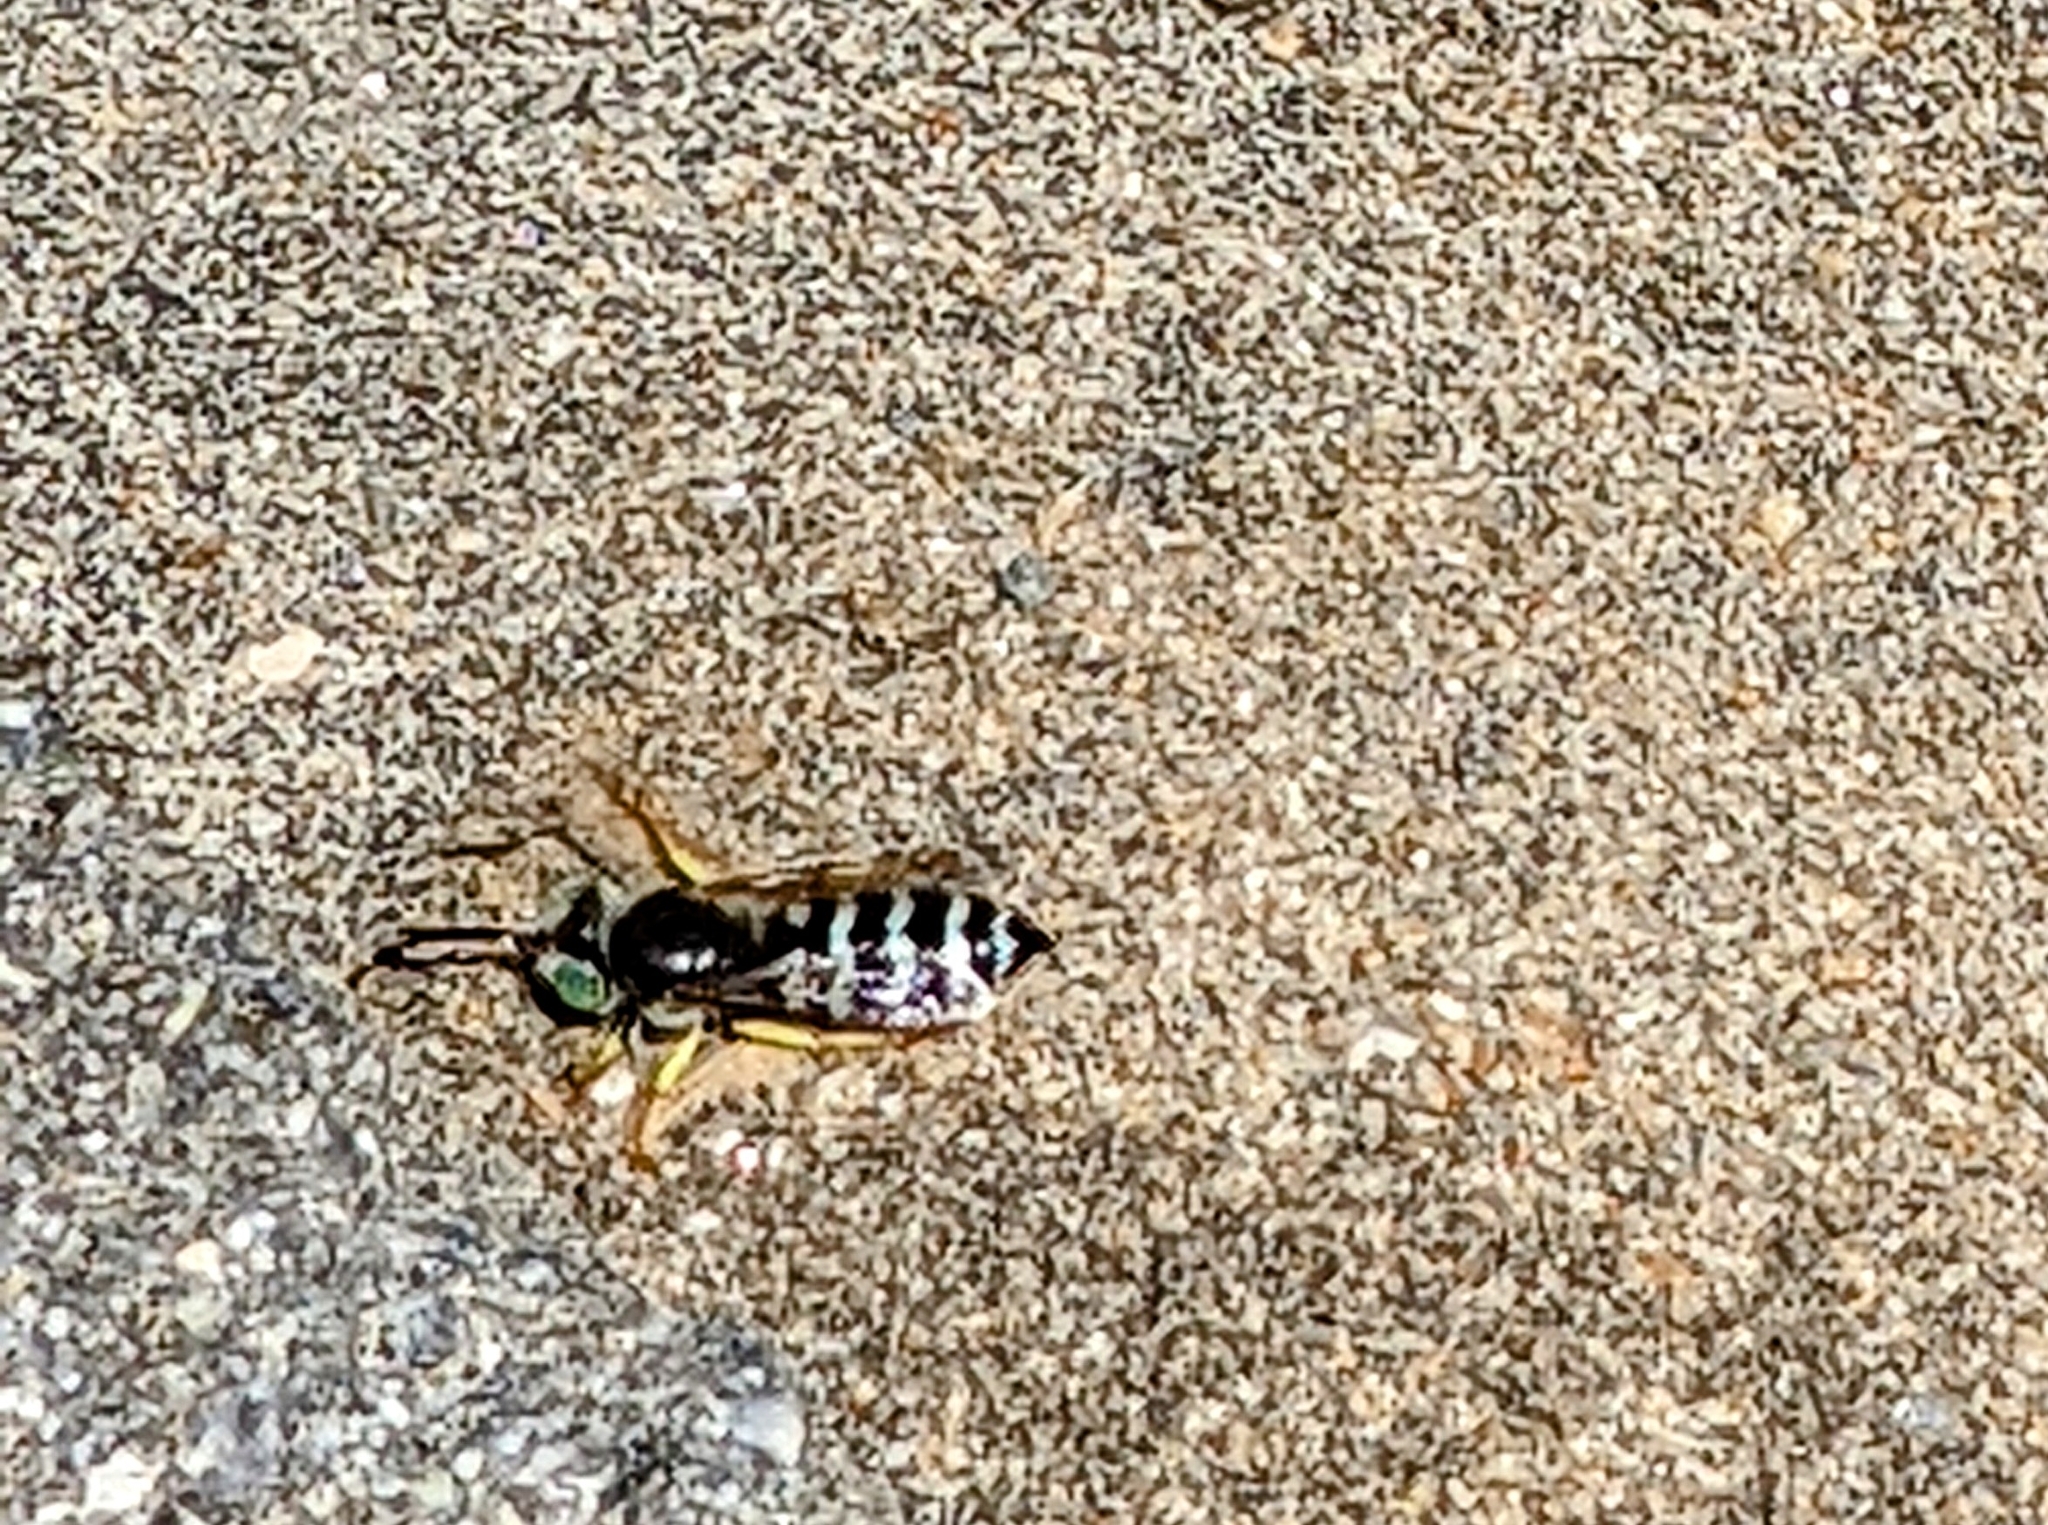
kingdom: Animalia
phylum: Arthropoda
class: Insecta
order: Hymenoptera
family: Crabronidae
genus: Bembix
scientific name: Bembix americana
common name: American sand wasp
